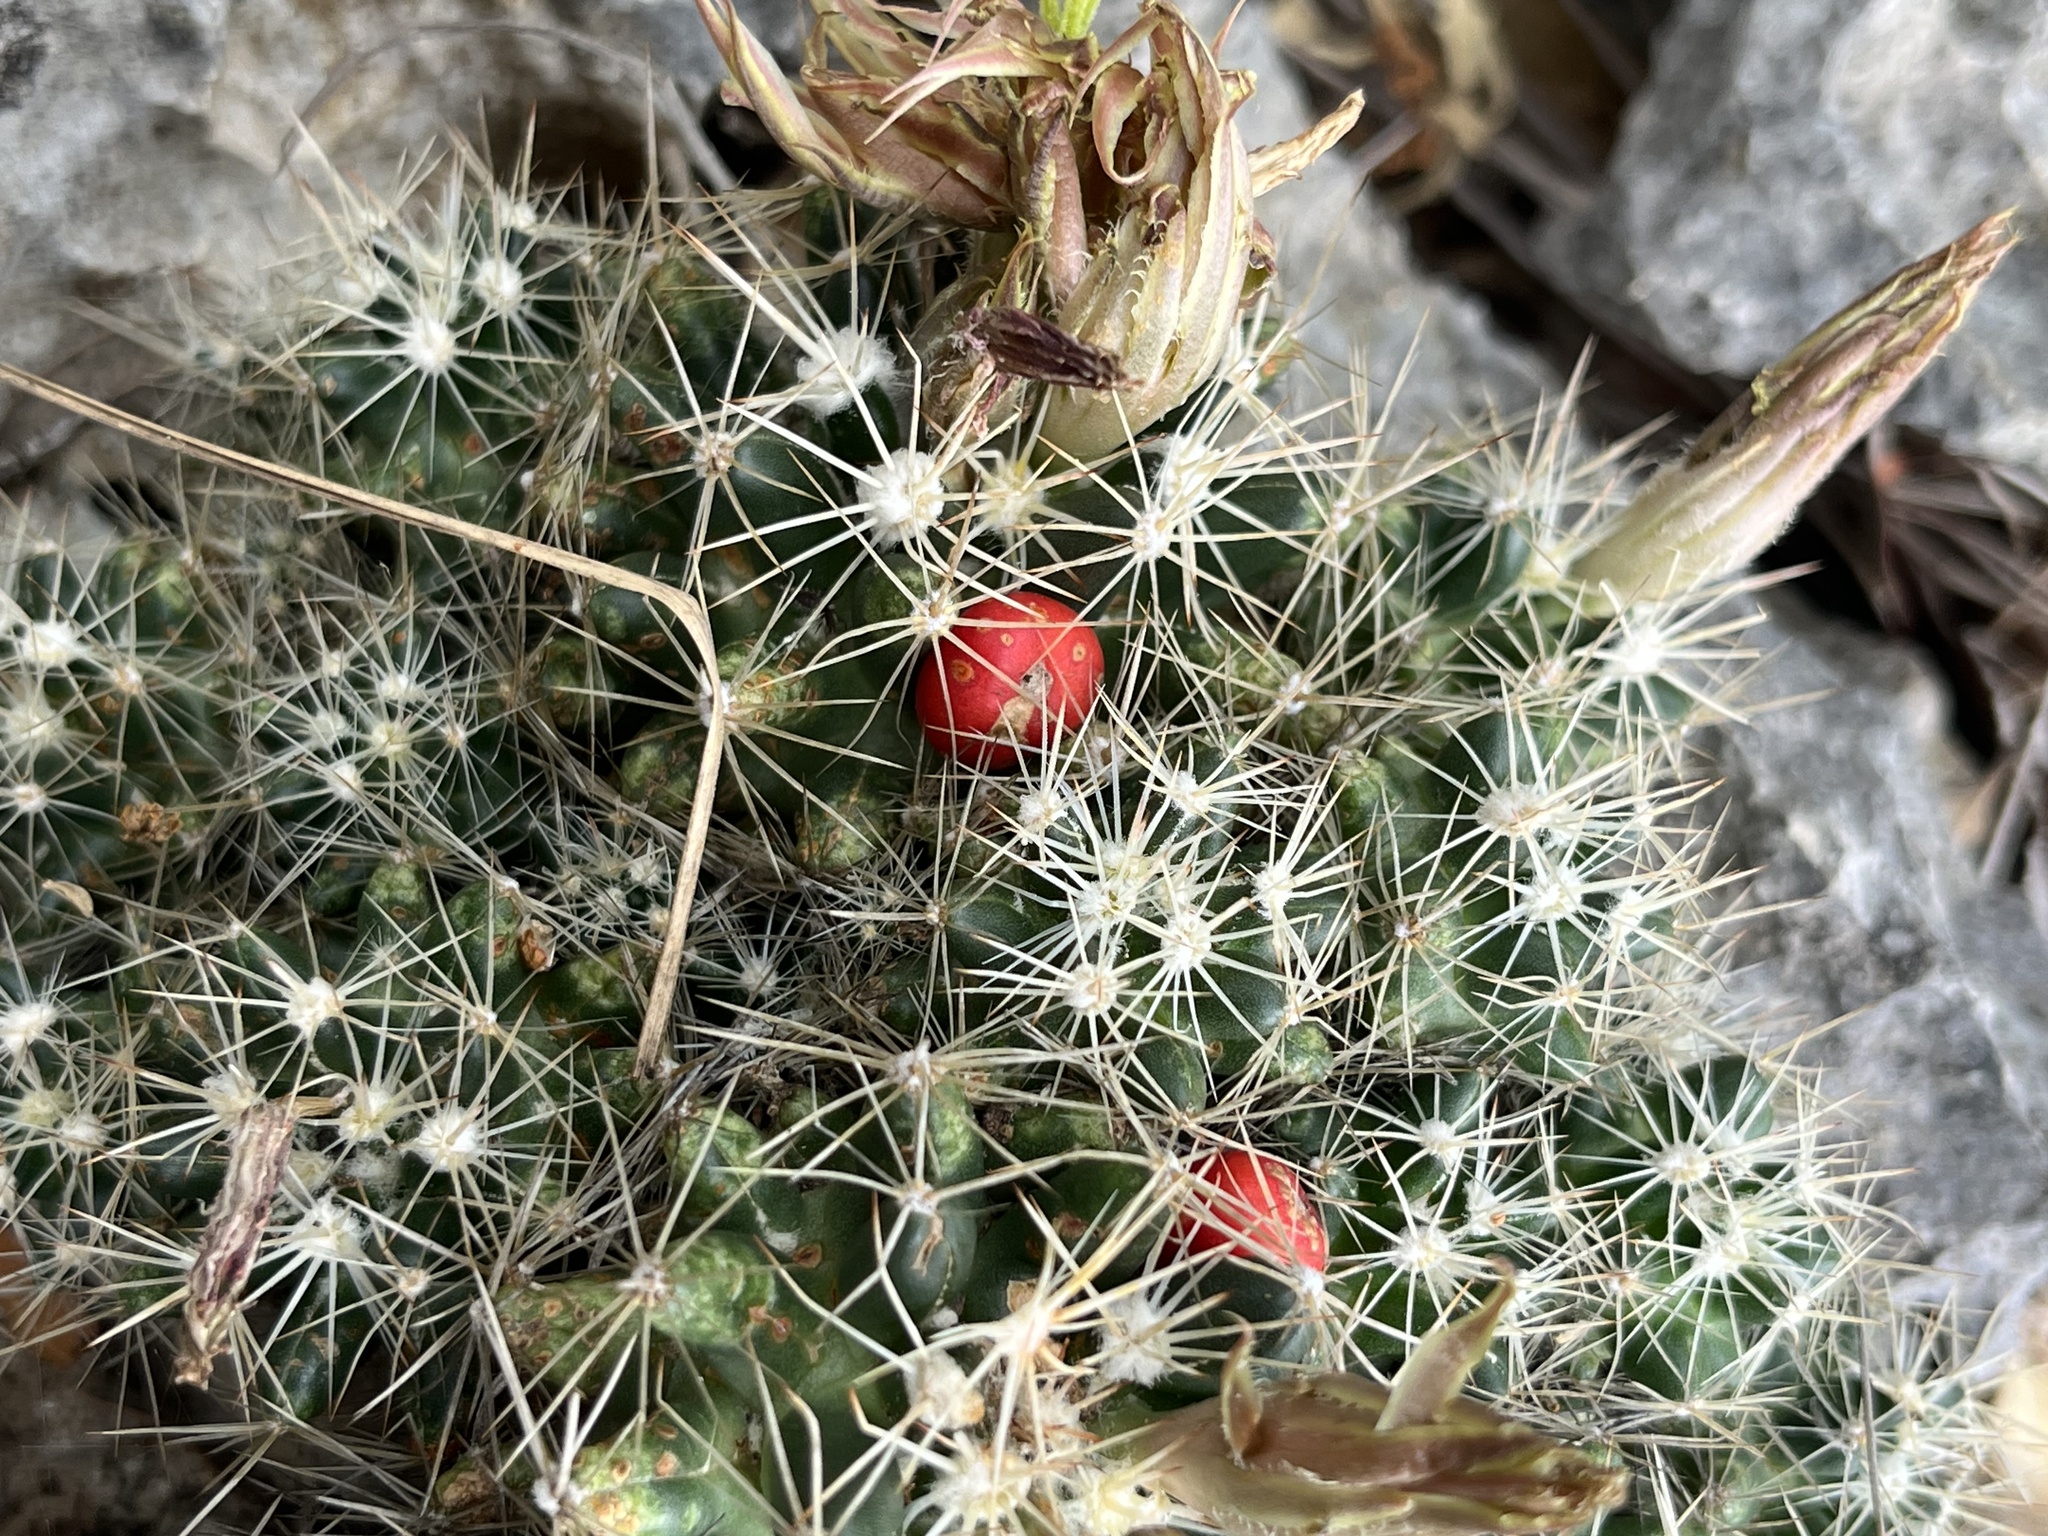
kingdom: Plantae
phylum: Tracheophyta
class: Magnoliopsida
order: Caryophyllales
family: Cactaceae
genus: Pelecyphora
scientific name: Pelecyphora missouriensis
